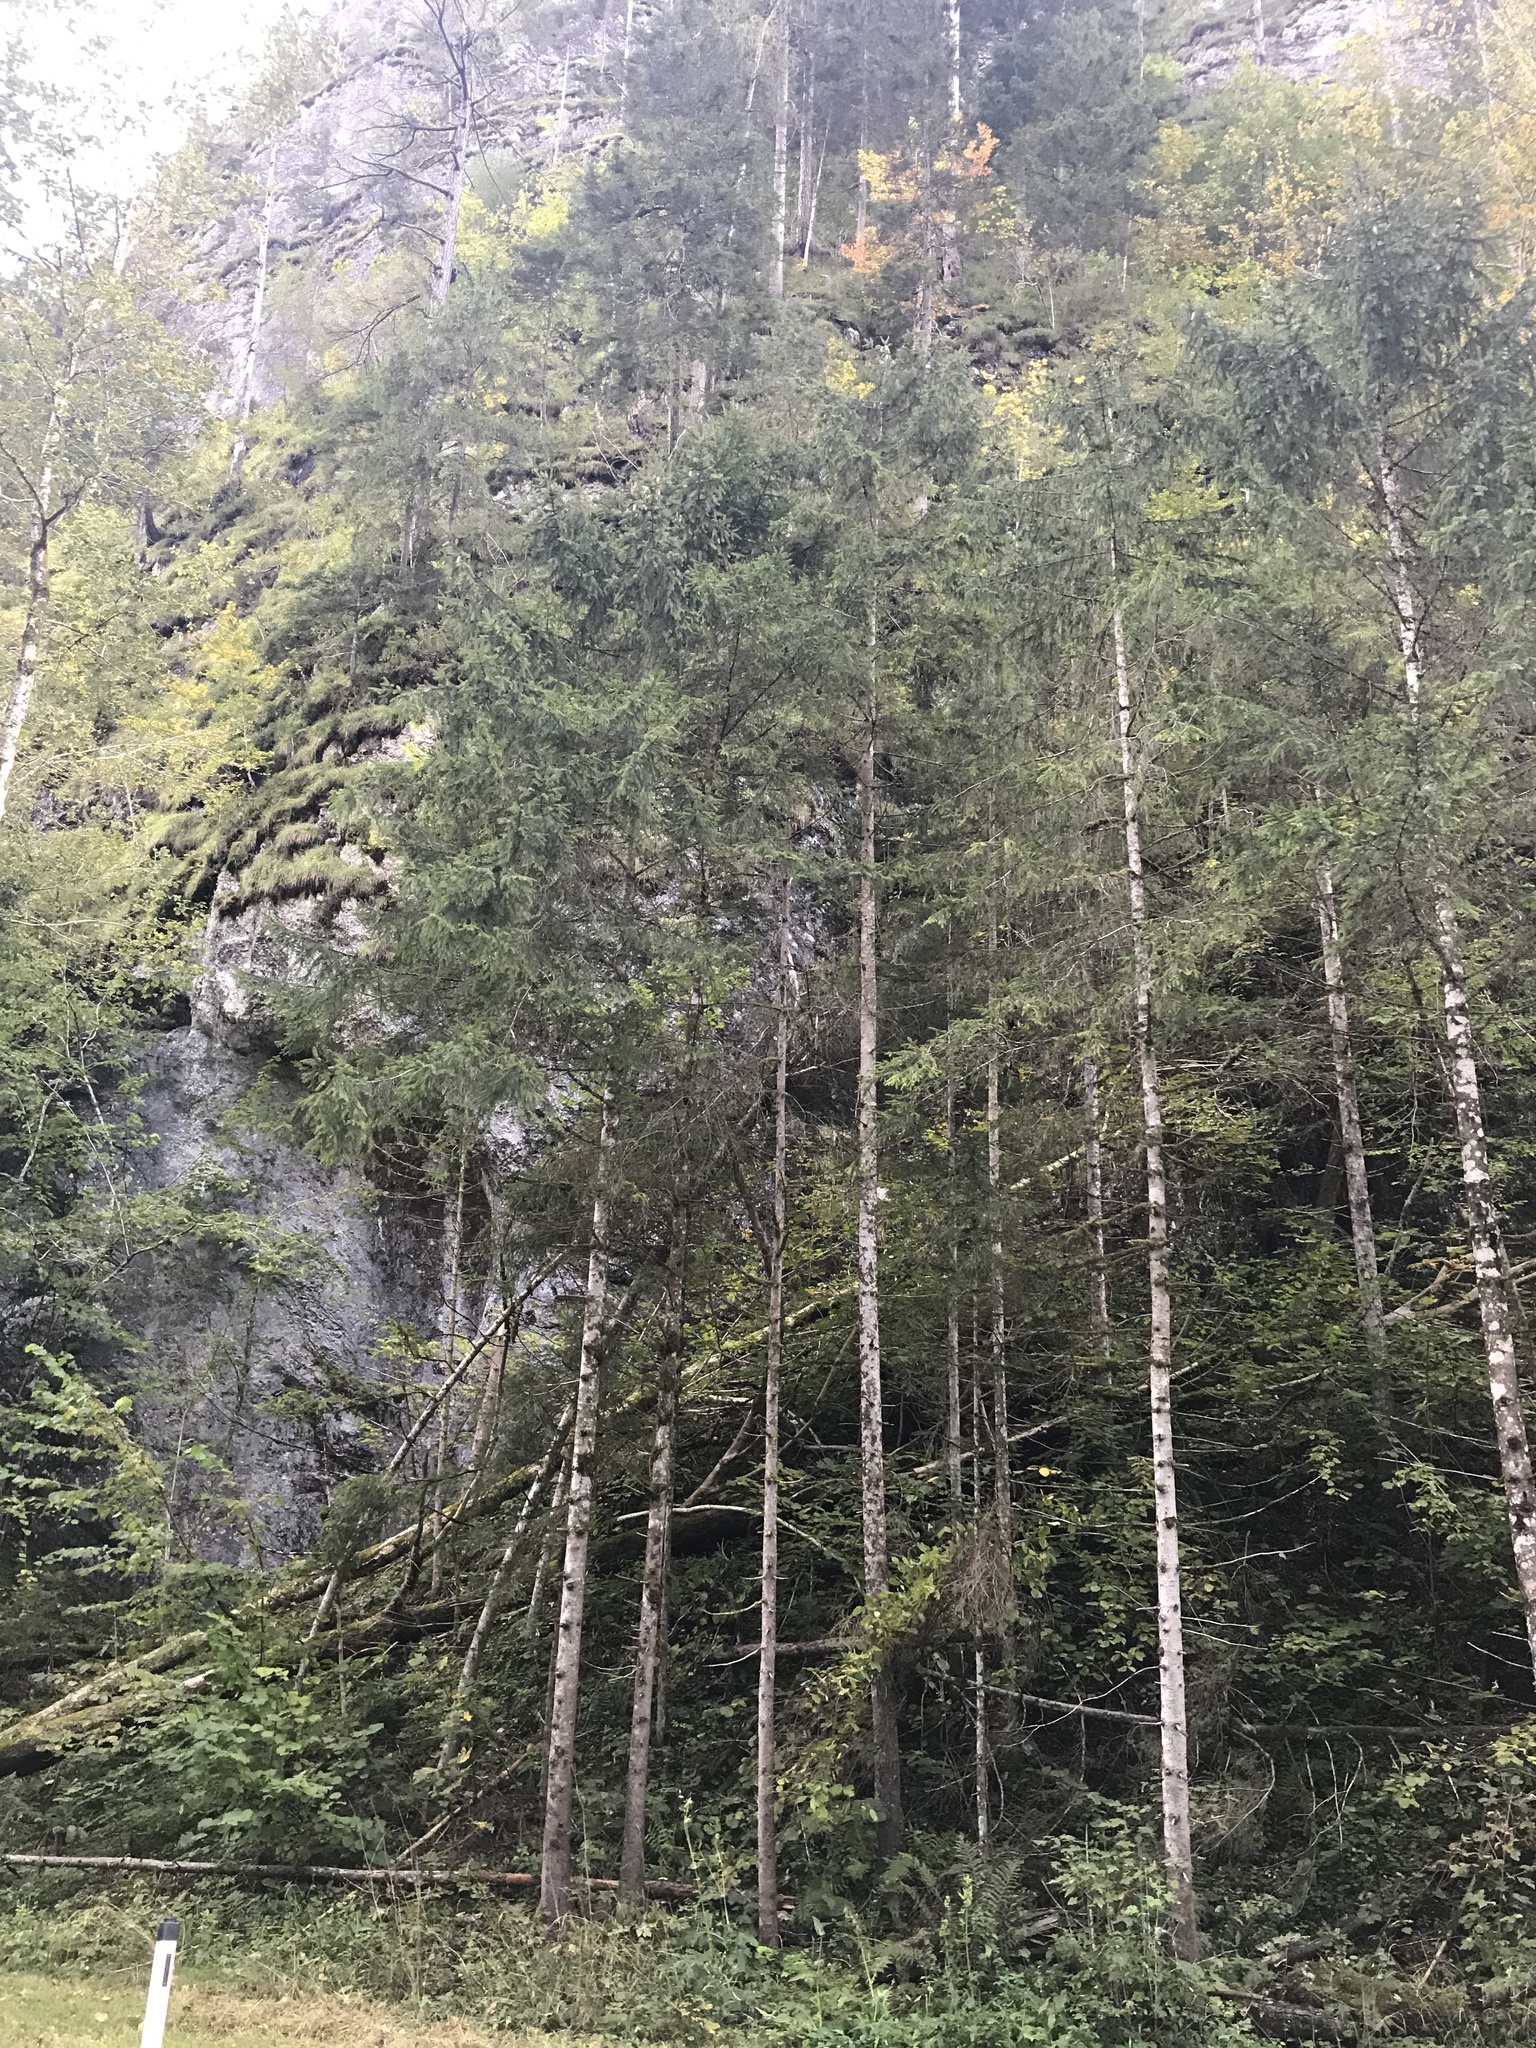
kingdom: Plantae
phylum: Tracheophyta
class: Pinopsida
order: Pinales
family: Pinaceae
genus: Picea
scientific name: Picea abies
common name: Norway spruce
